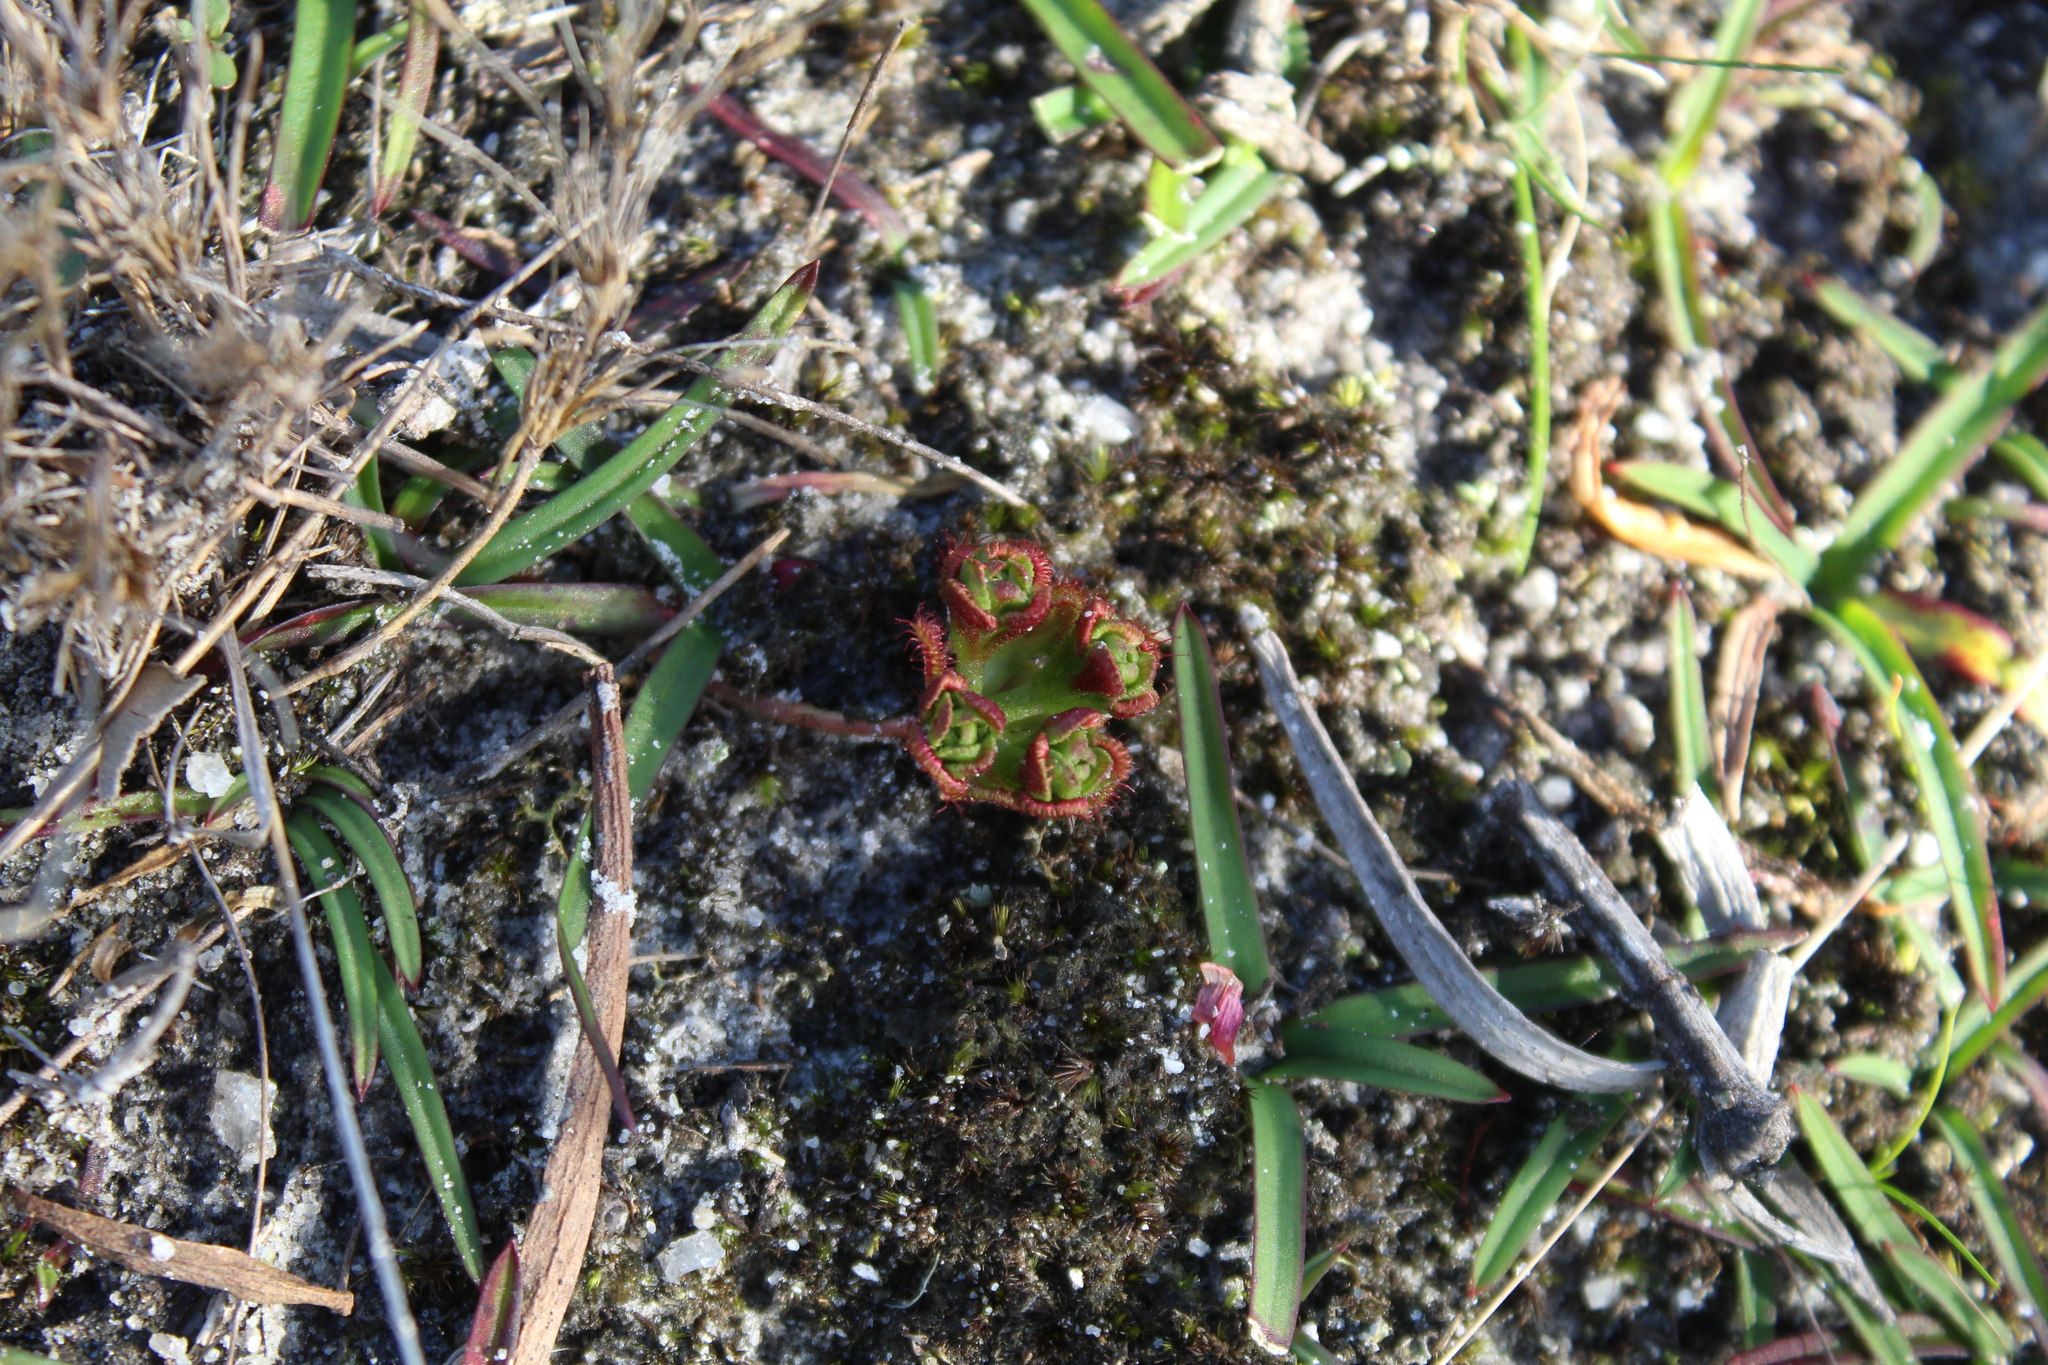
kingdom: Plantae
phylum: Tracheophyta
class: Magnoliopsida
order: Caryophyllales
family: Droseraceae
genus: Drosera
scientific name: Drosera platypoda
